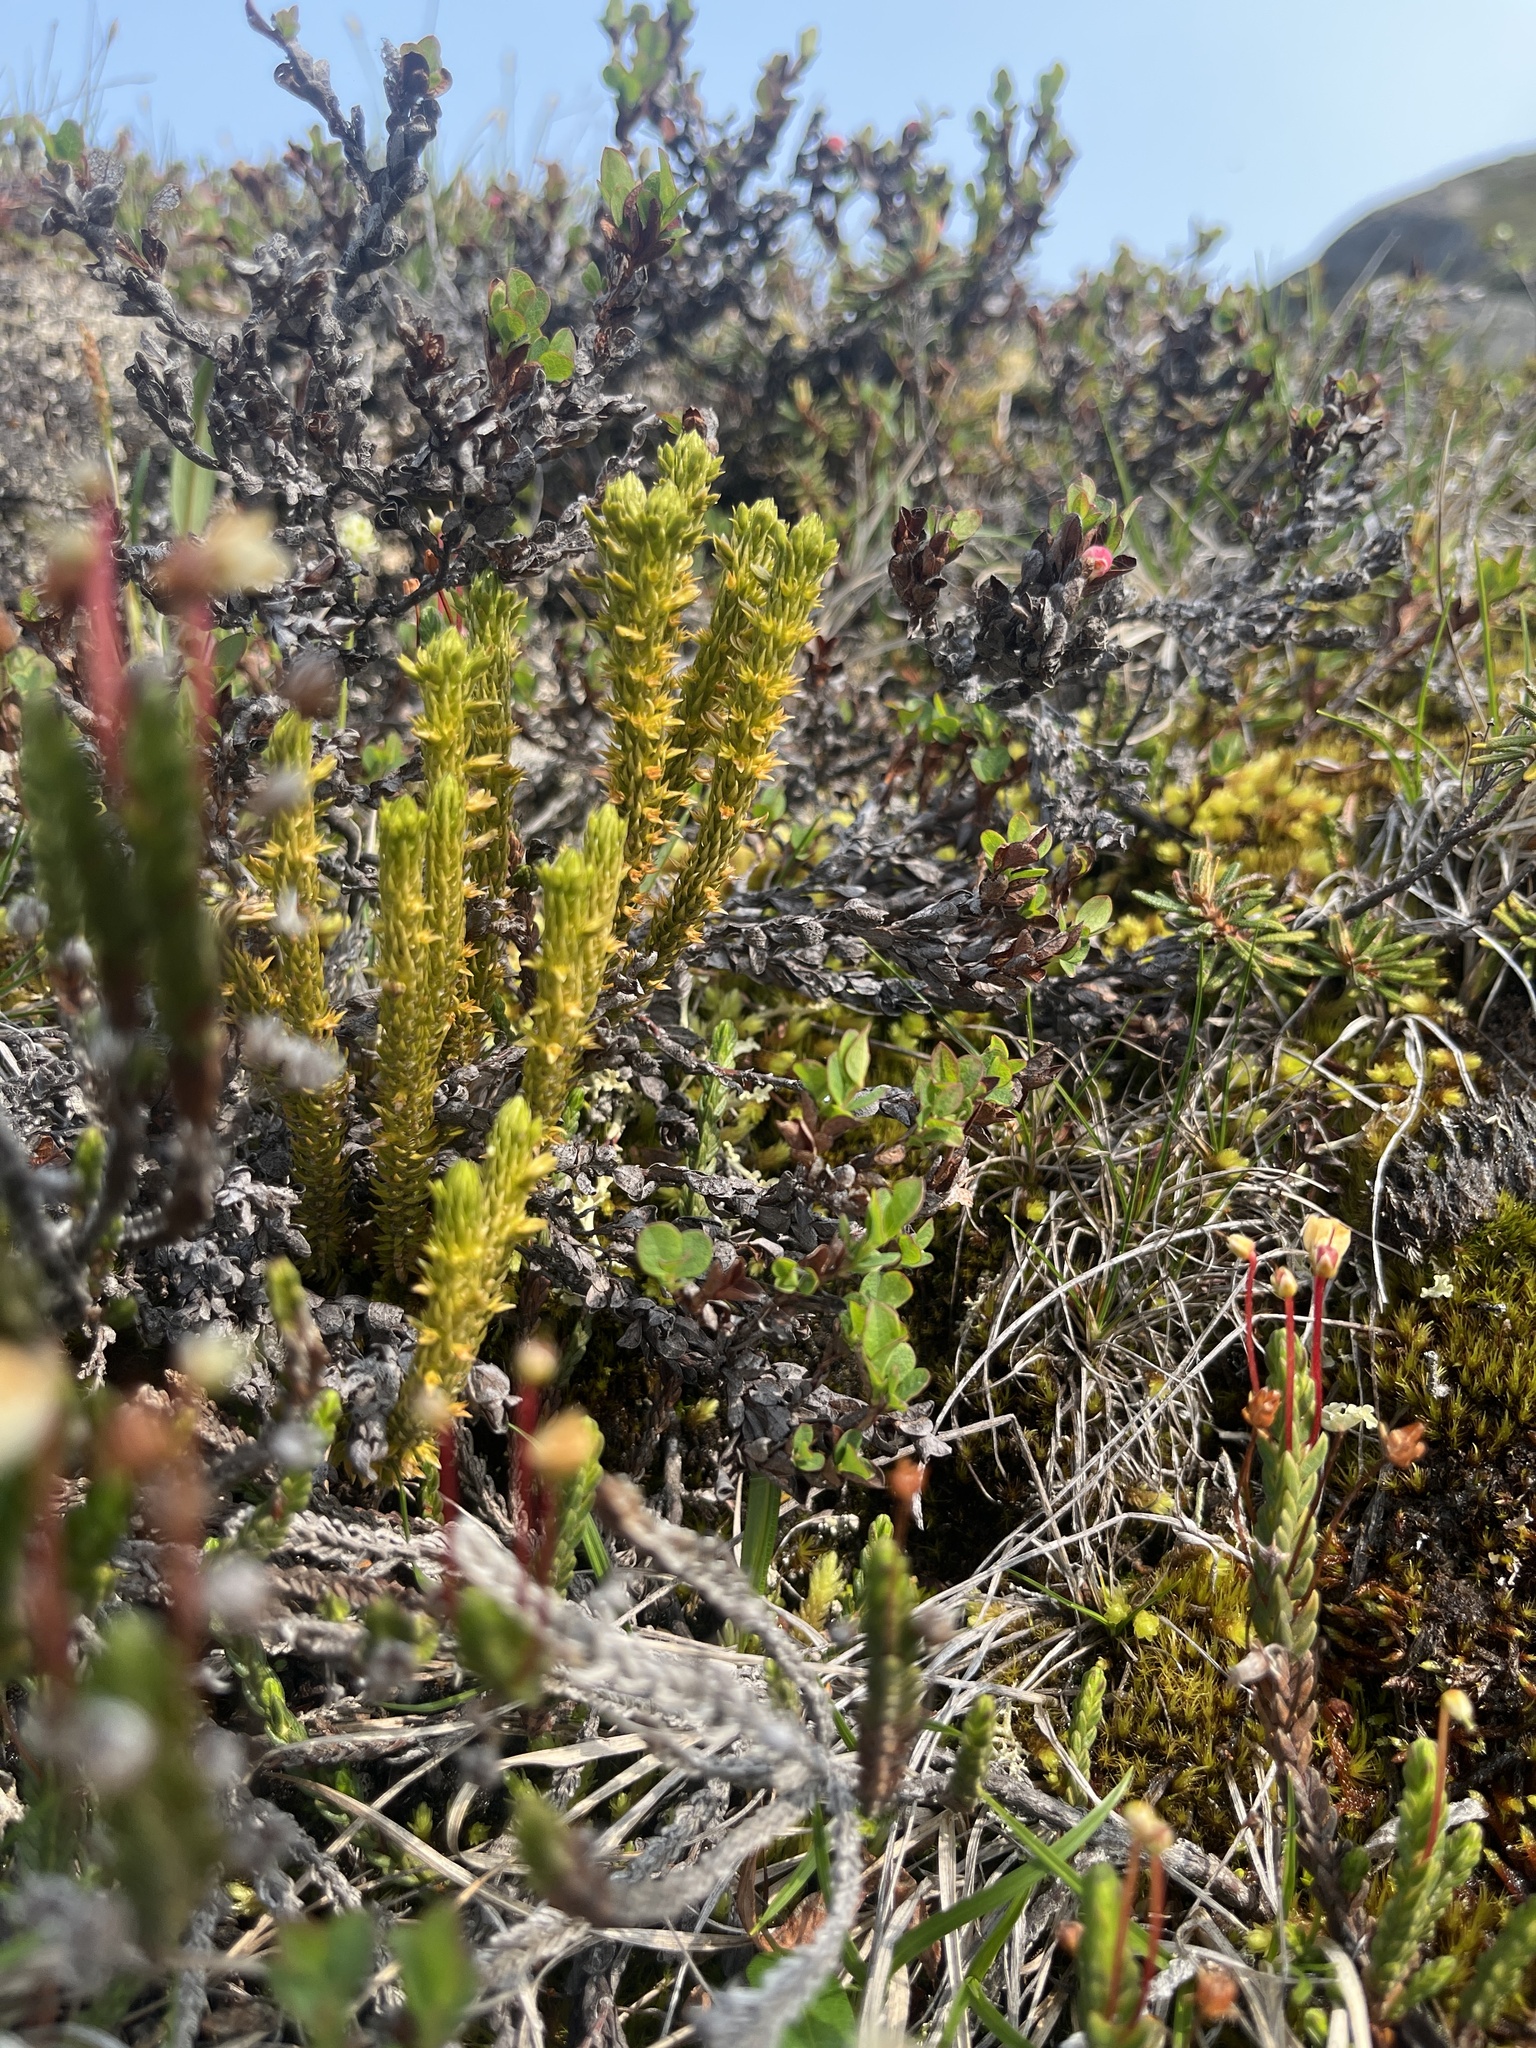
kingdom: Plantae
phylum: Tracheophyta
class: Lycopodiopsida
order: Lycopodiales
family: Lycopodiaceae
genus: Huperzia
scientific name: Huperzia selago
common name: Northern firmoss
